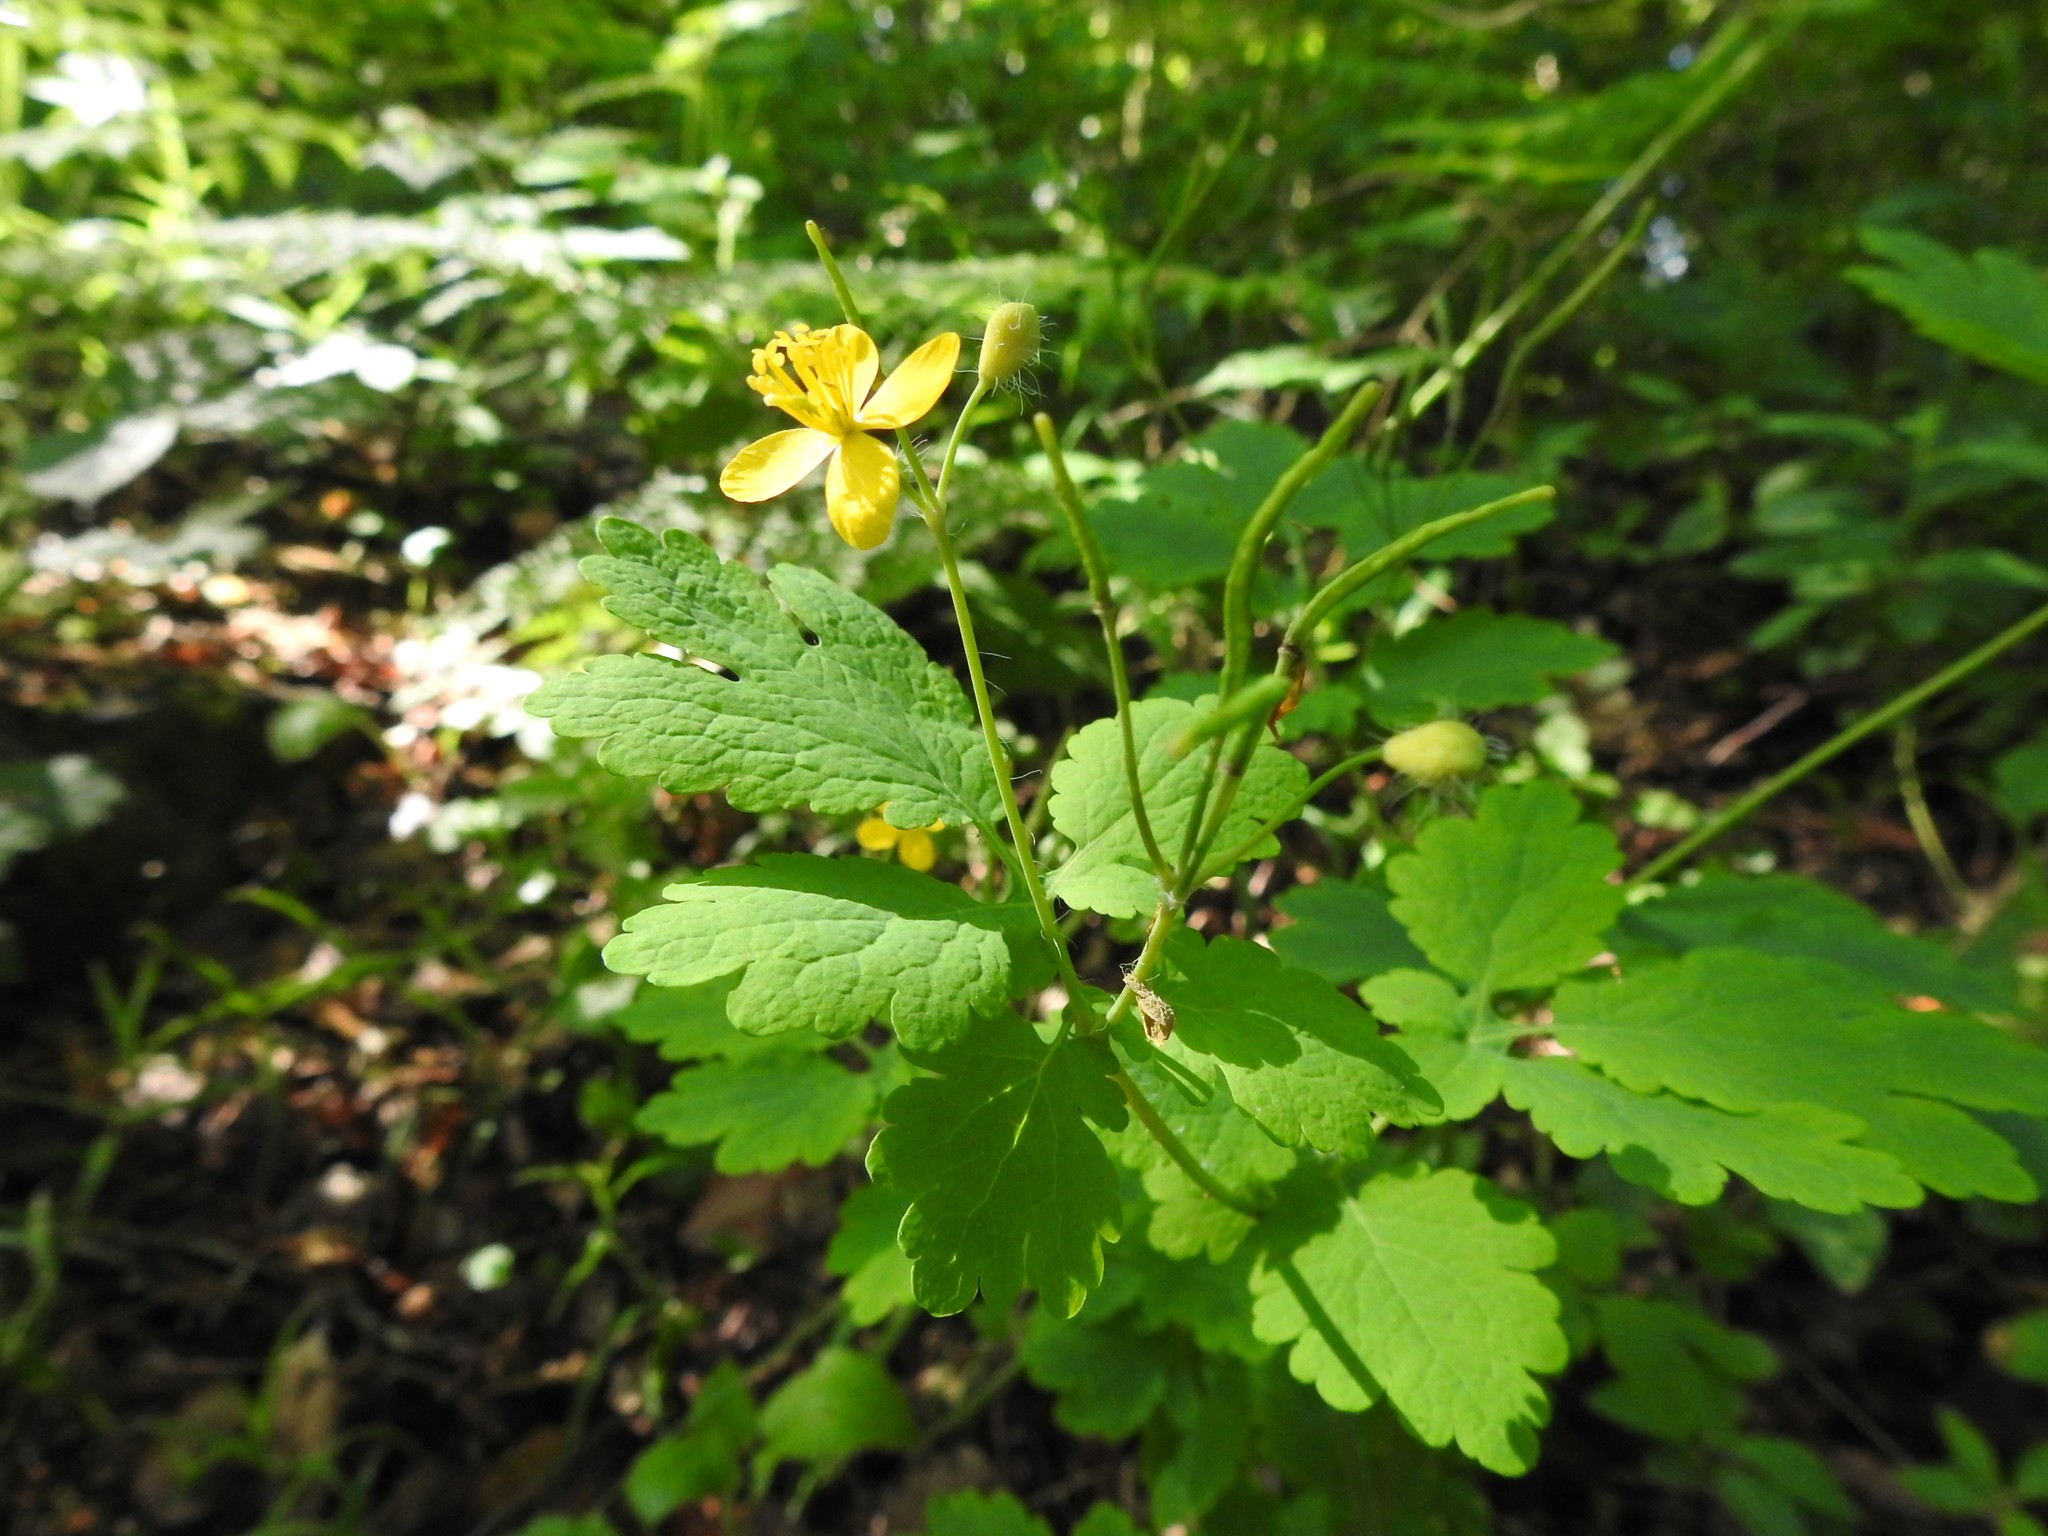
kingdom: Plantae
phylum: Tracheophyta
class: Magnoliopsida
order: Ranunculales
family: Papaveraceae
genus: Chelidonium
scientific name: Chelidonium majus
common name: Greater celandine
